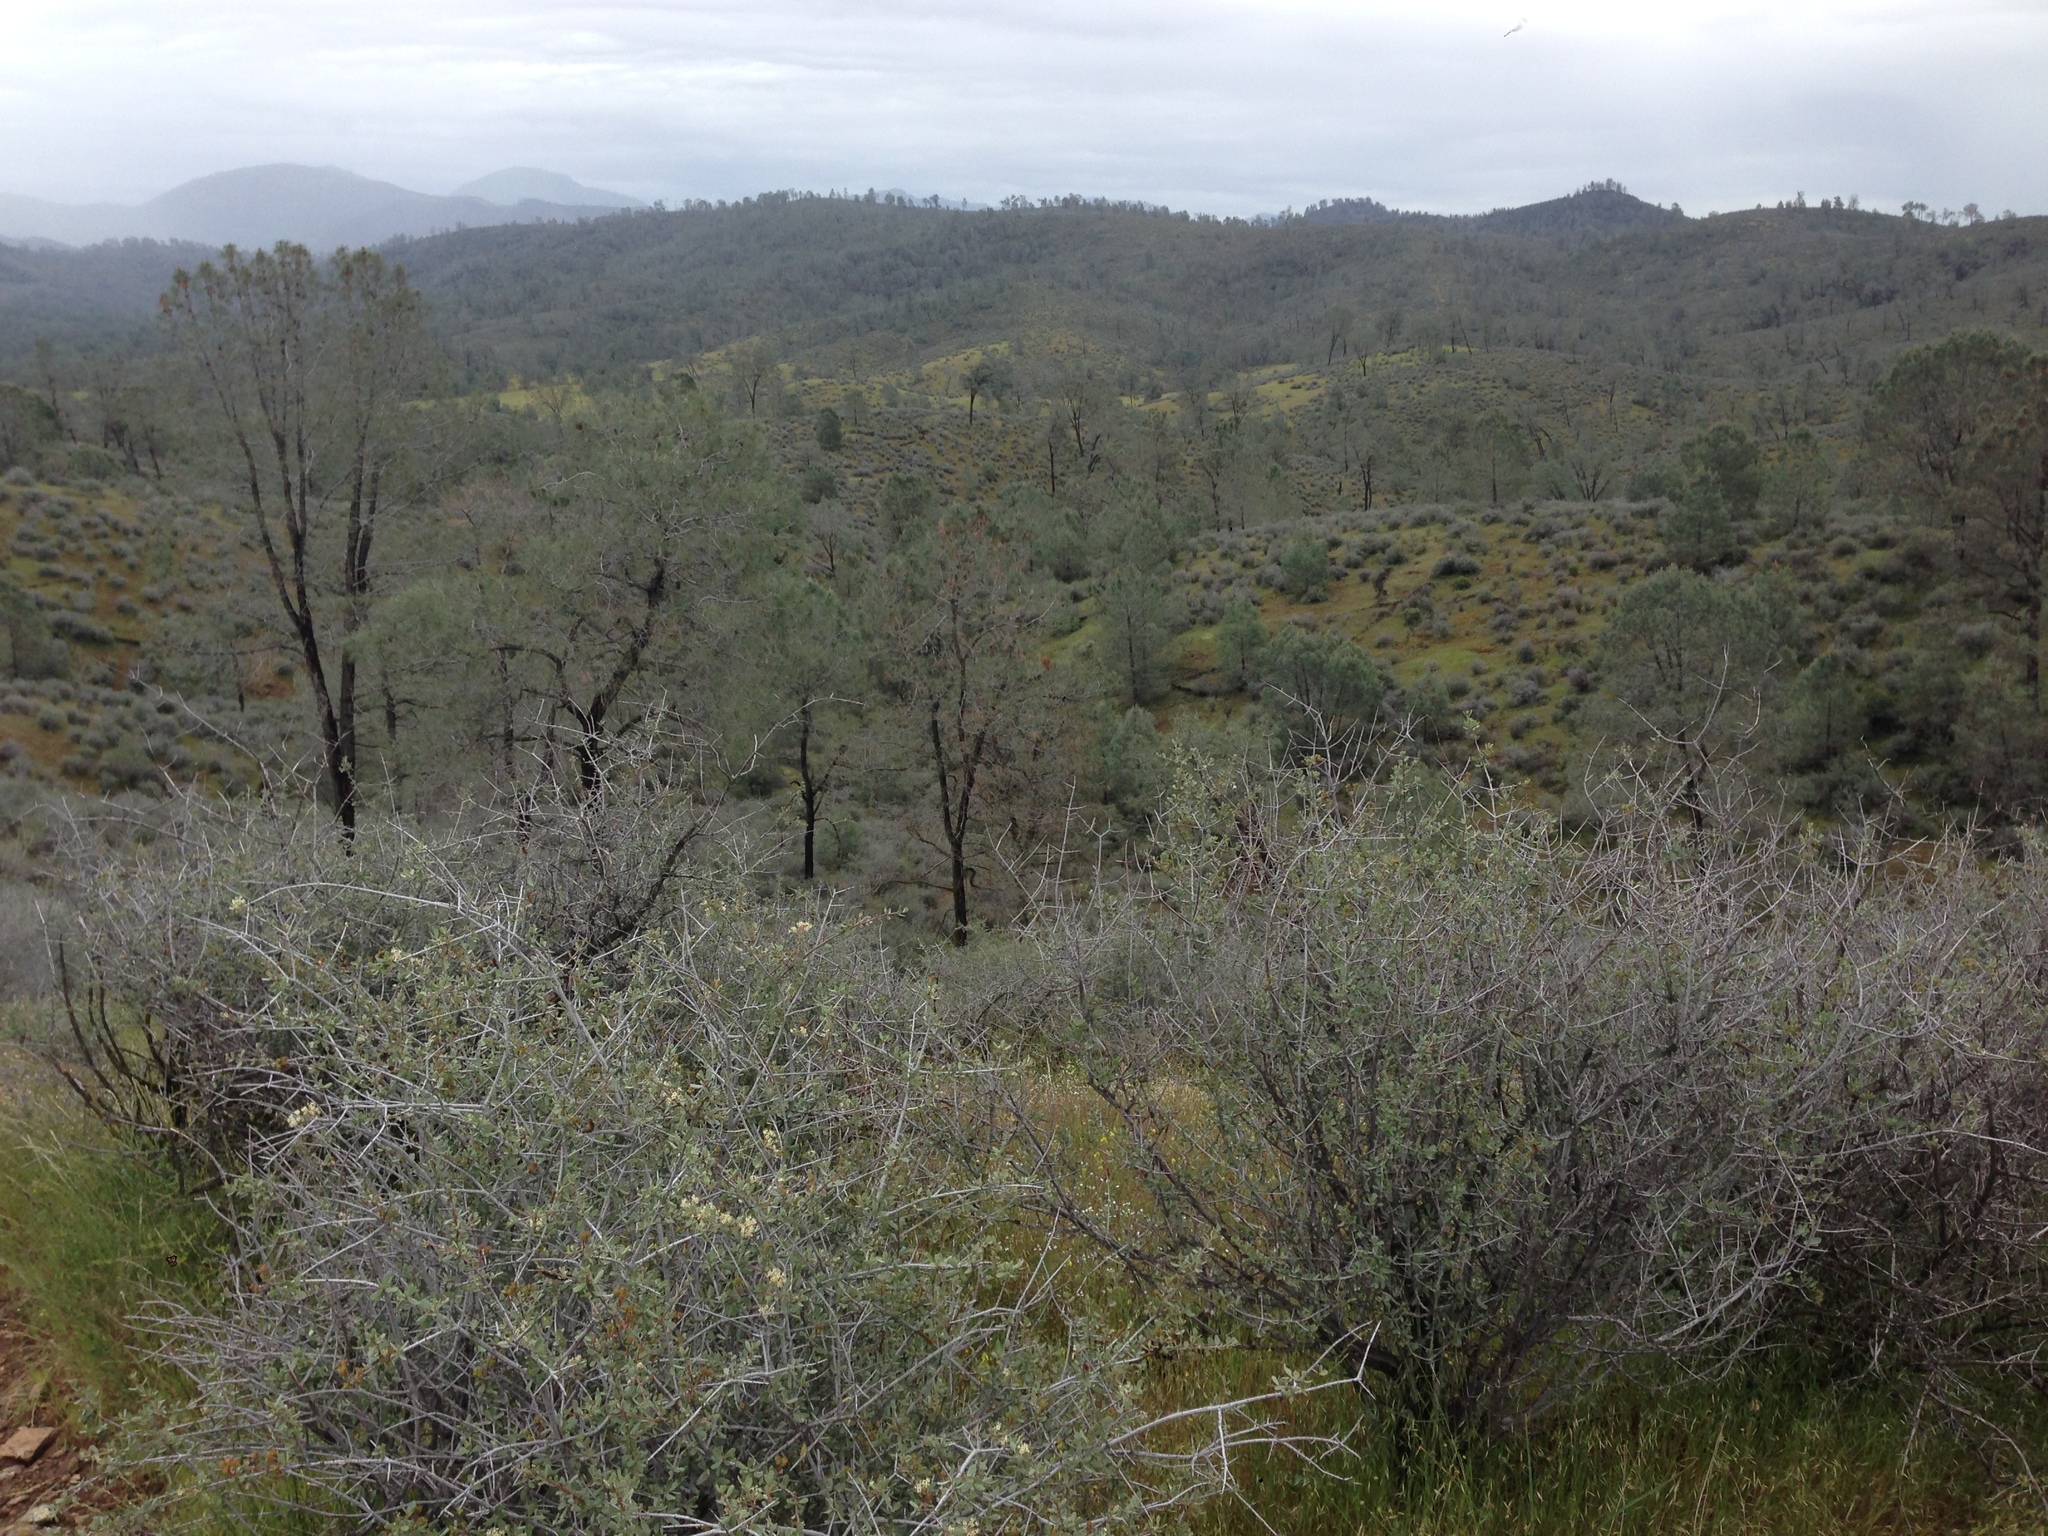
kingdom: Plantae
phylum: Tracheophyta
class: Pinopsida
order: Pinales
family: Pinaceae
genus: Pinus
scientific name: Pinus sabiniana
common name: Bull pine
